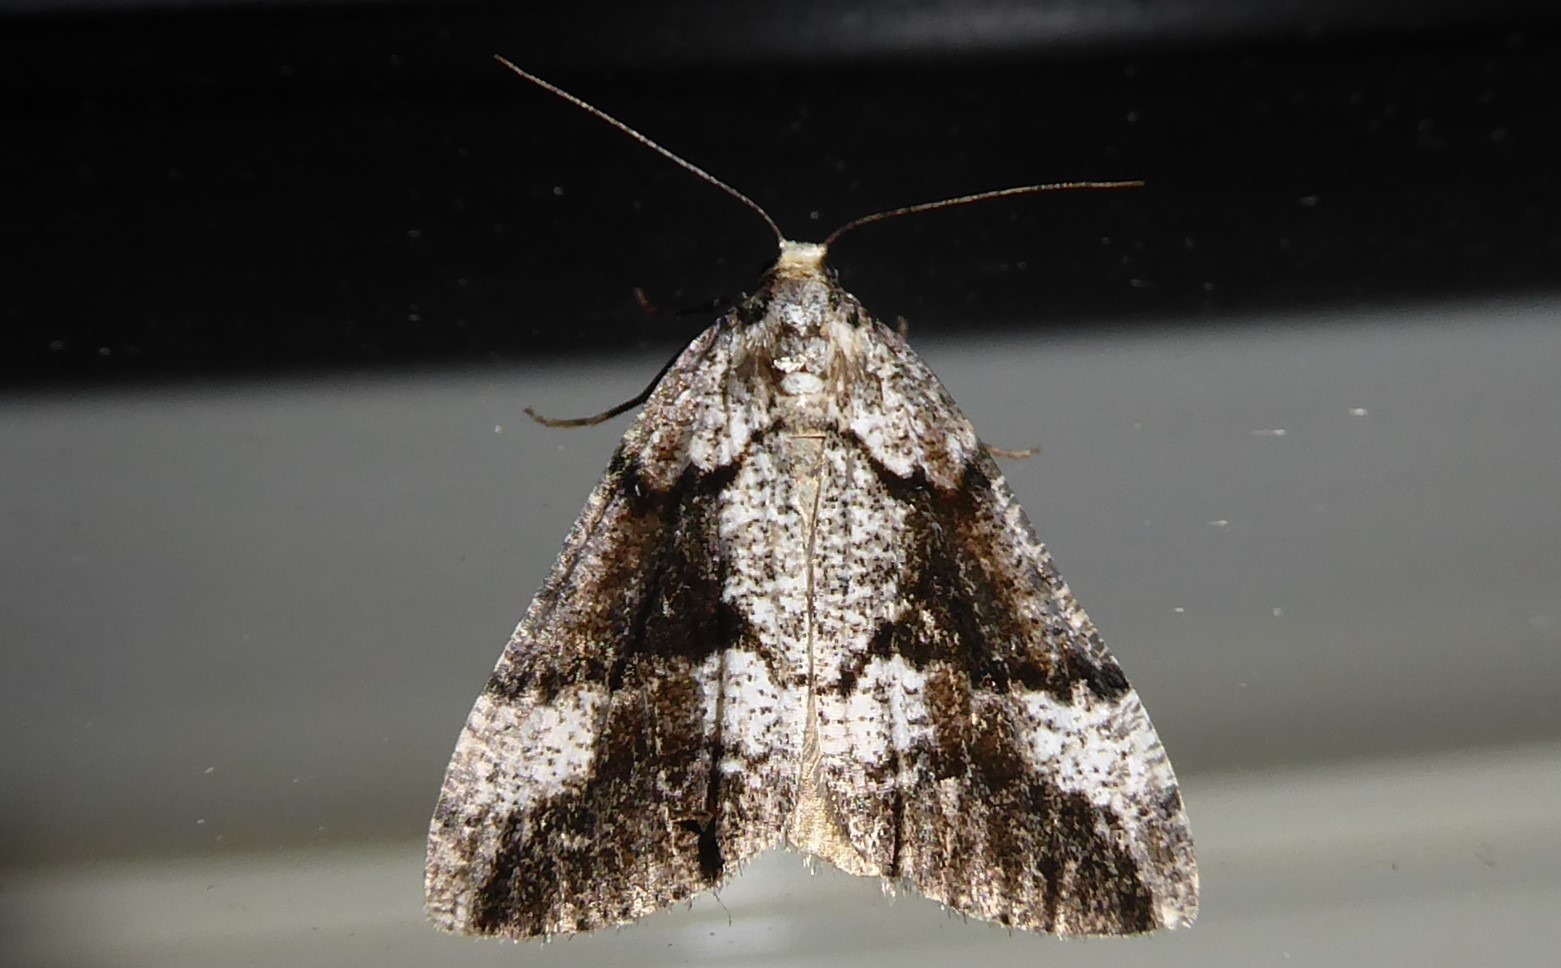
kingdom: Animalia
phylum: Arthropoda
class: Insecta
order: Lepidoptera
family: Geometridae
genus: Pseudocoremia
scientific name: Pseudocoremia leucelaea
